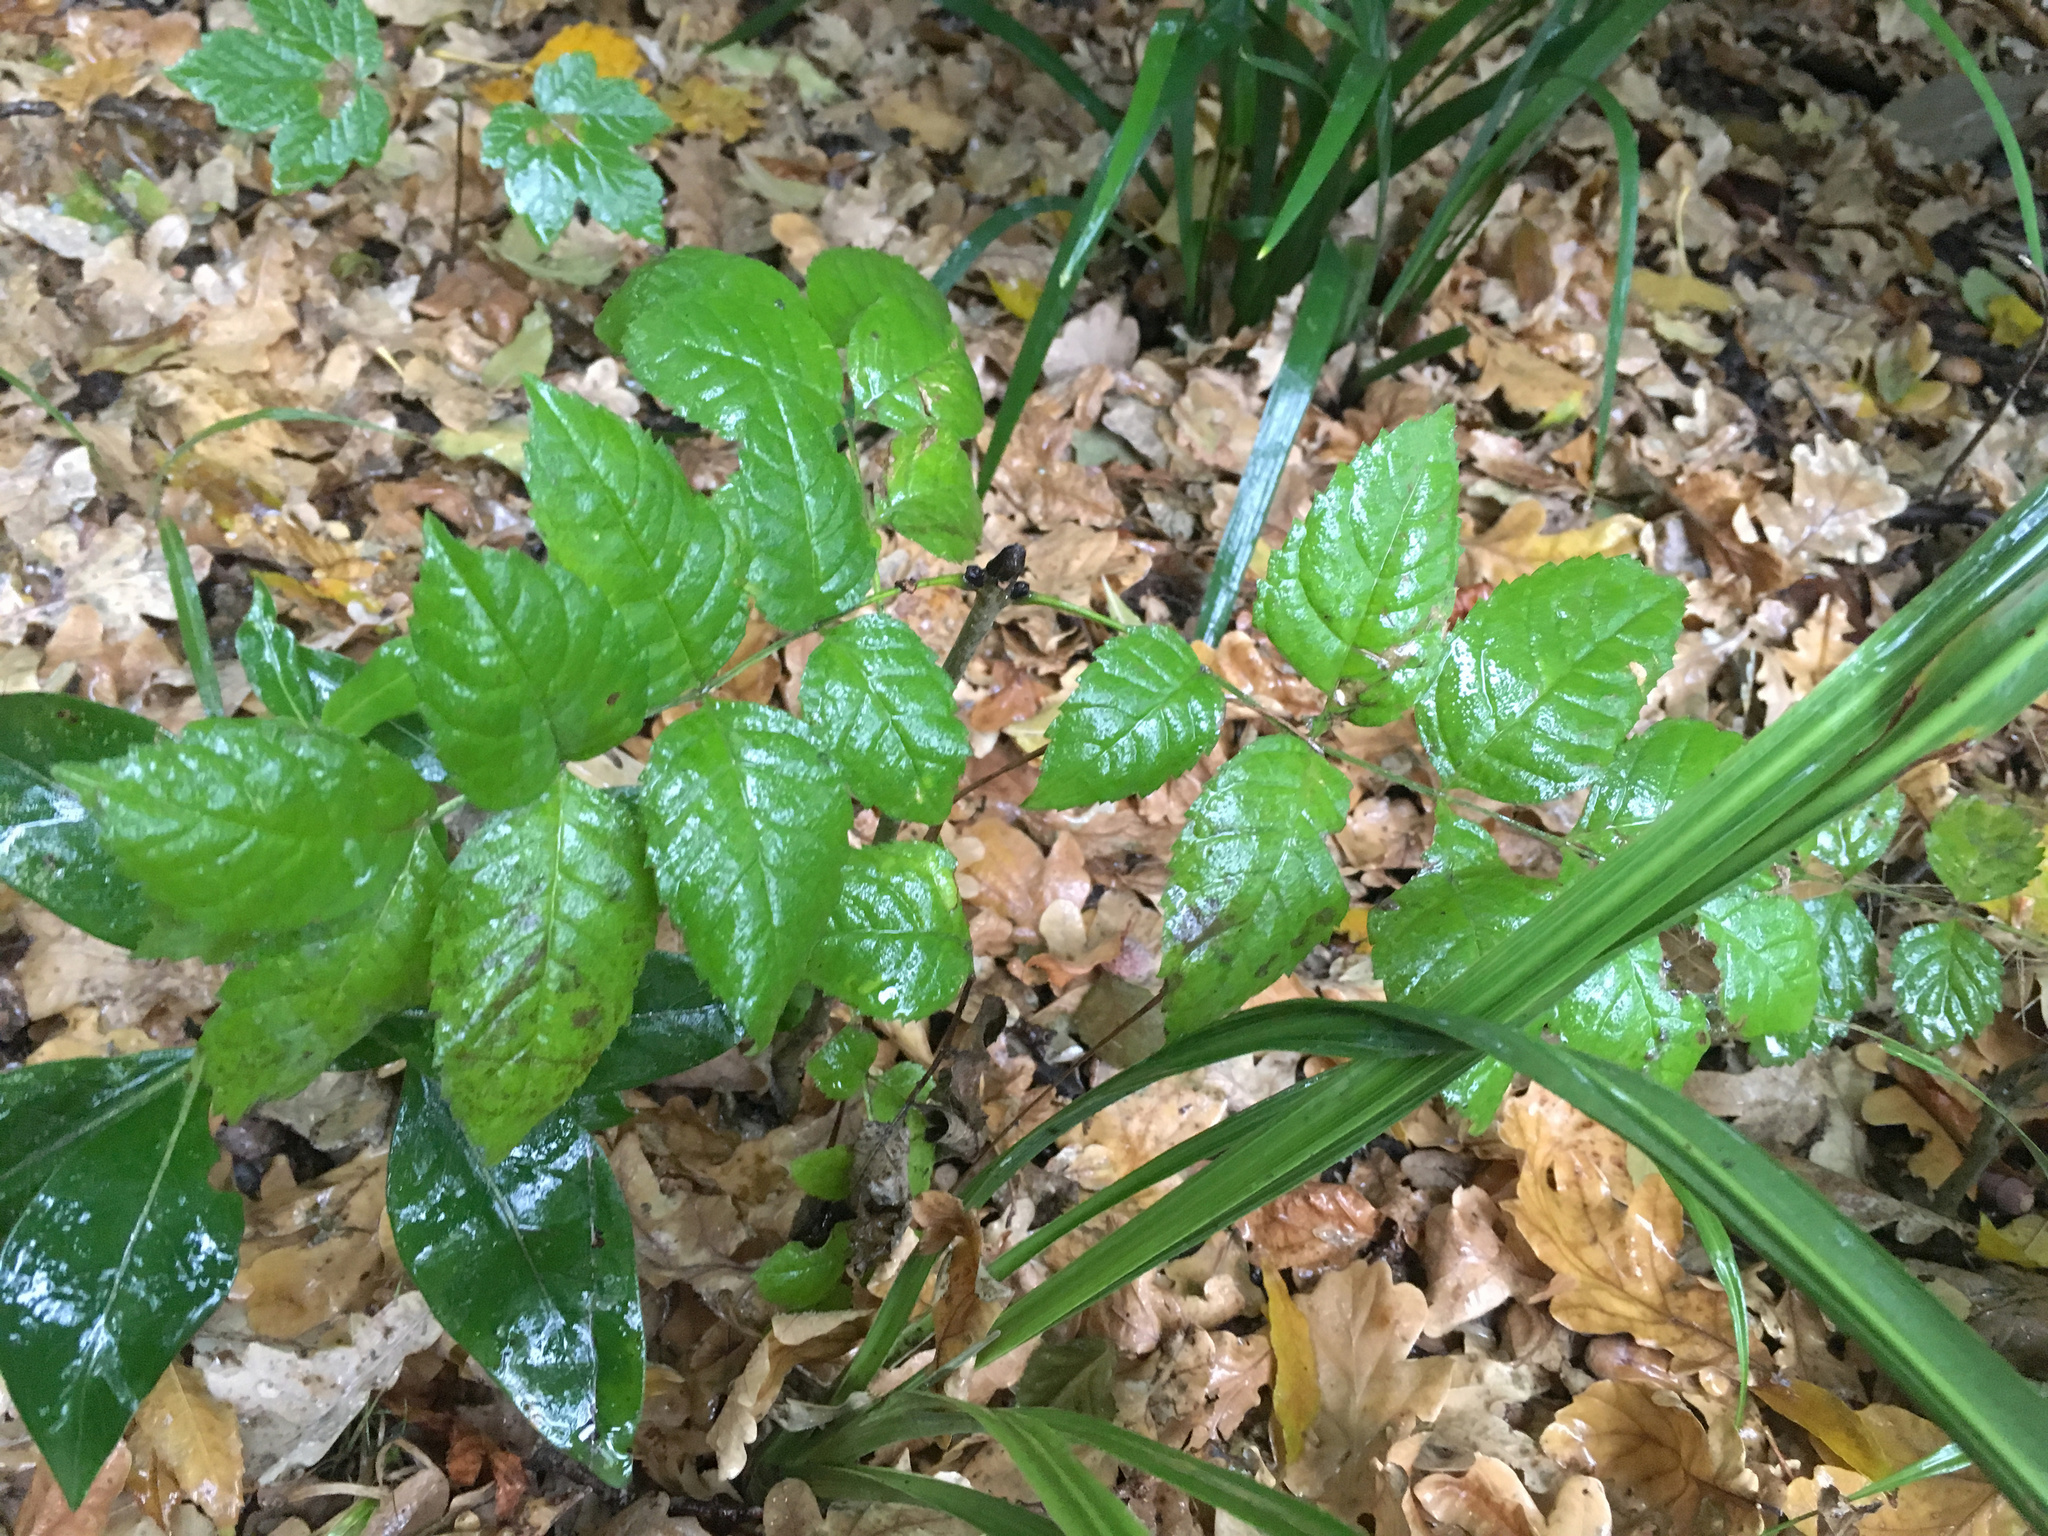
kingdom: Plantae
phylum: Tracheophyta
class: Magnoliopsida
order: Lamiales
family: Oleaceae
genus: Fraxinus
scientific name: Fraxinus excelsior
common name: European ash
